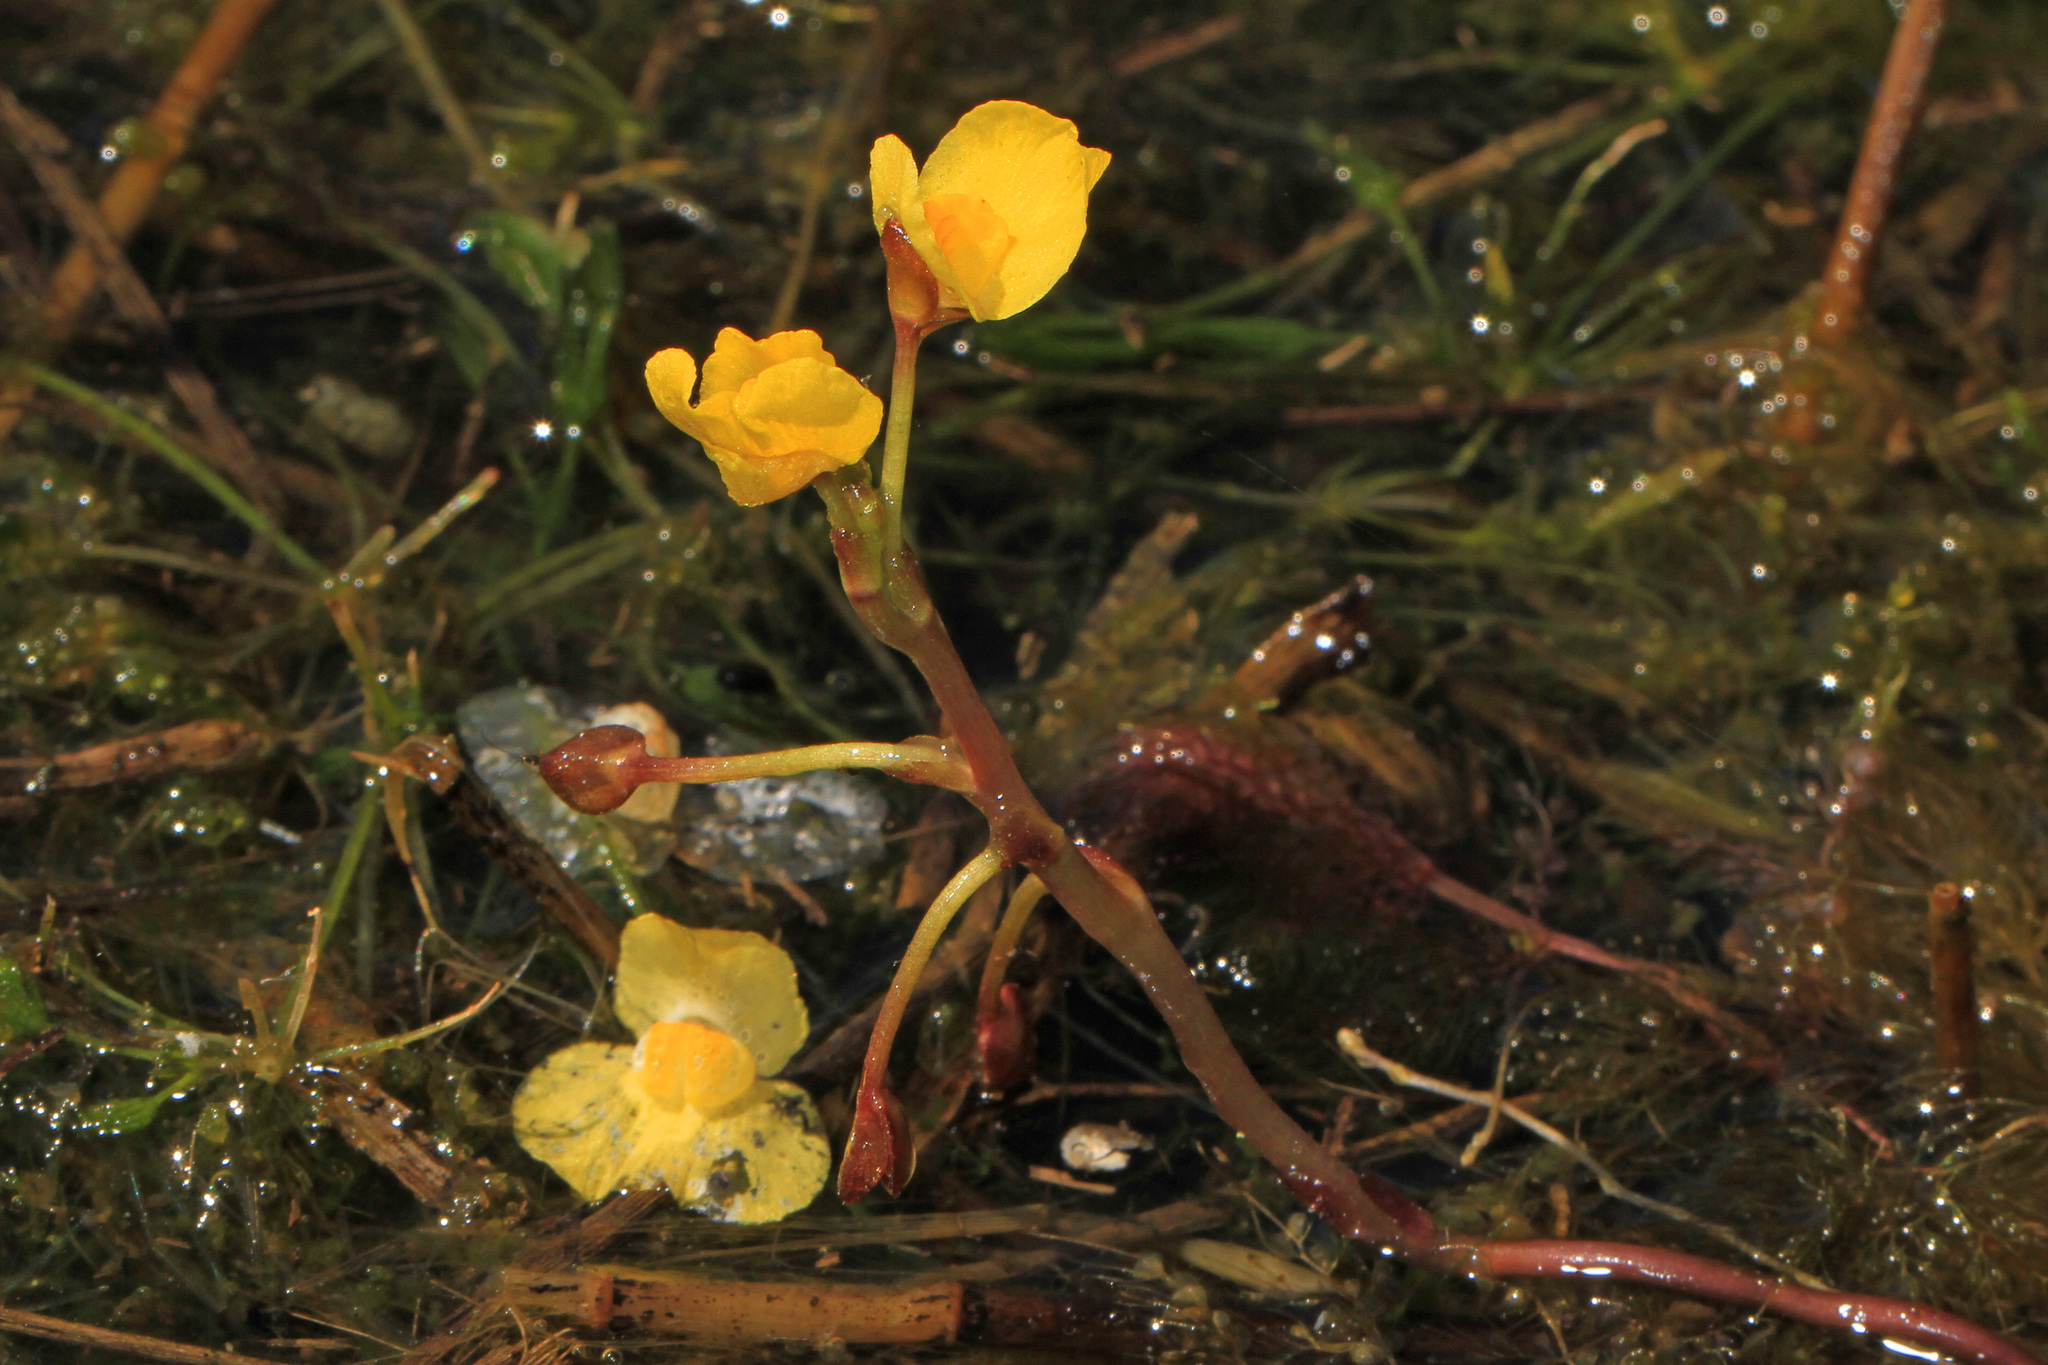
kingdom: Plantae
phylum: Tracheophyta
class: Magnoliopsida
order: Lamiales
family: Lentibulariaceae
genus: Utricularia
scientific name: Utricularia foliosa
